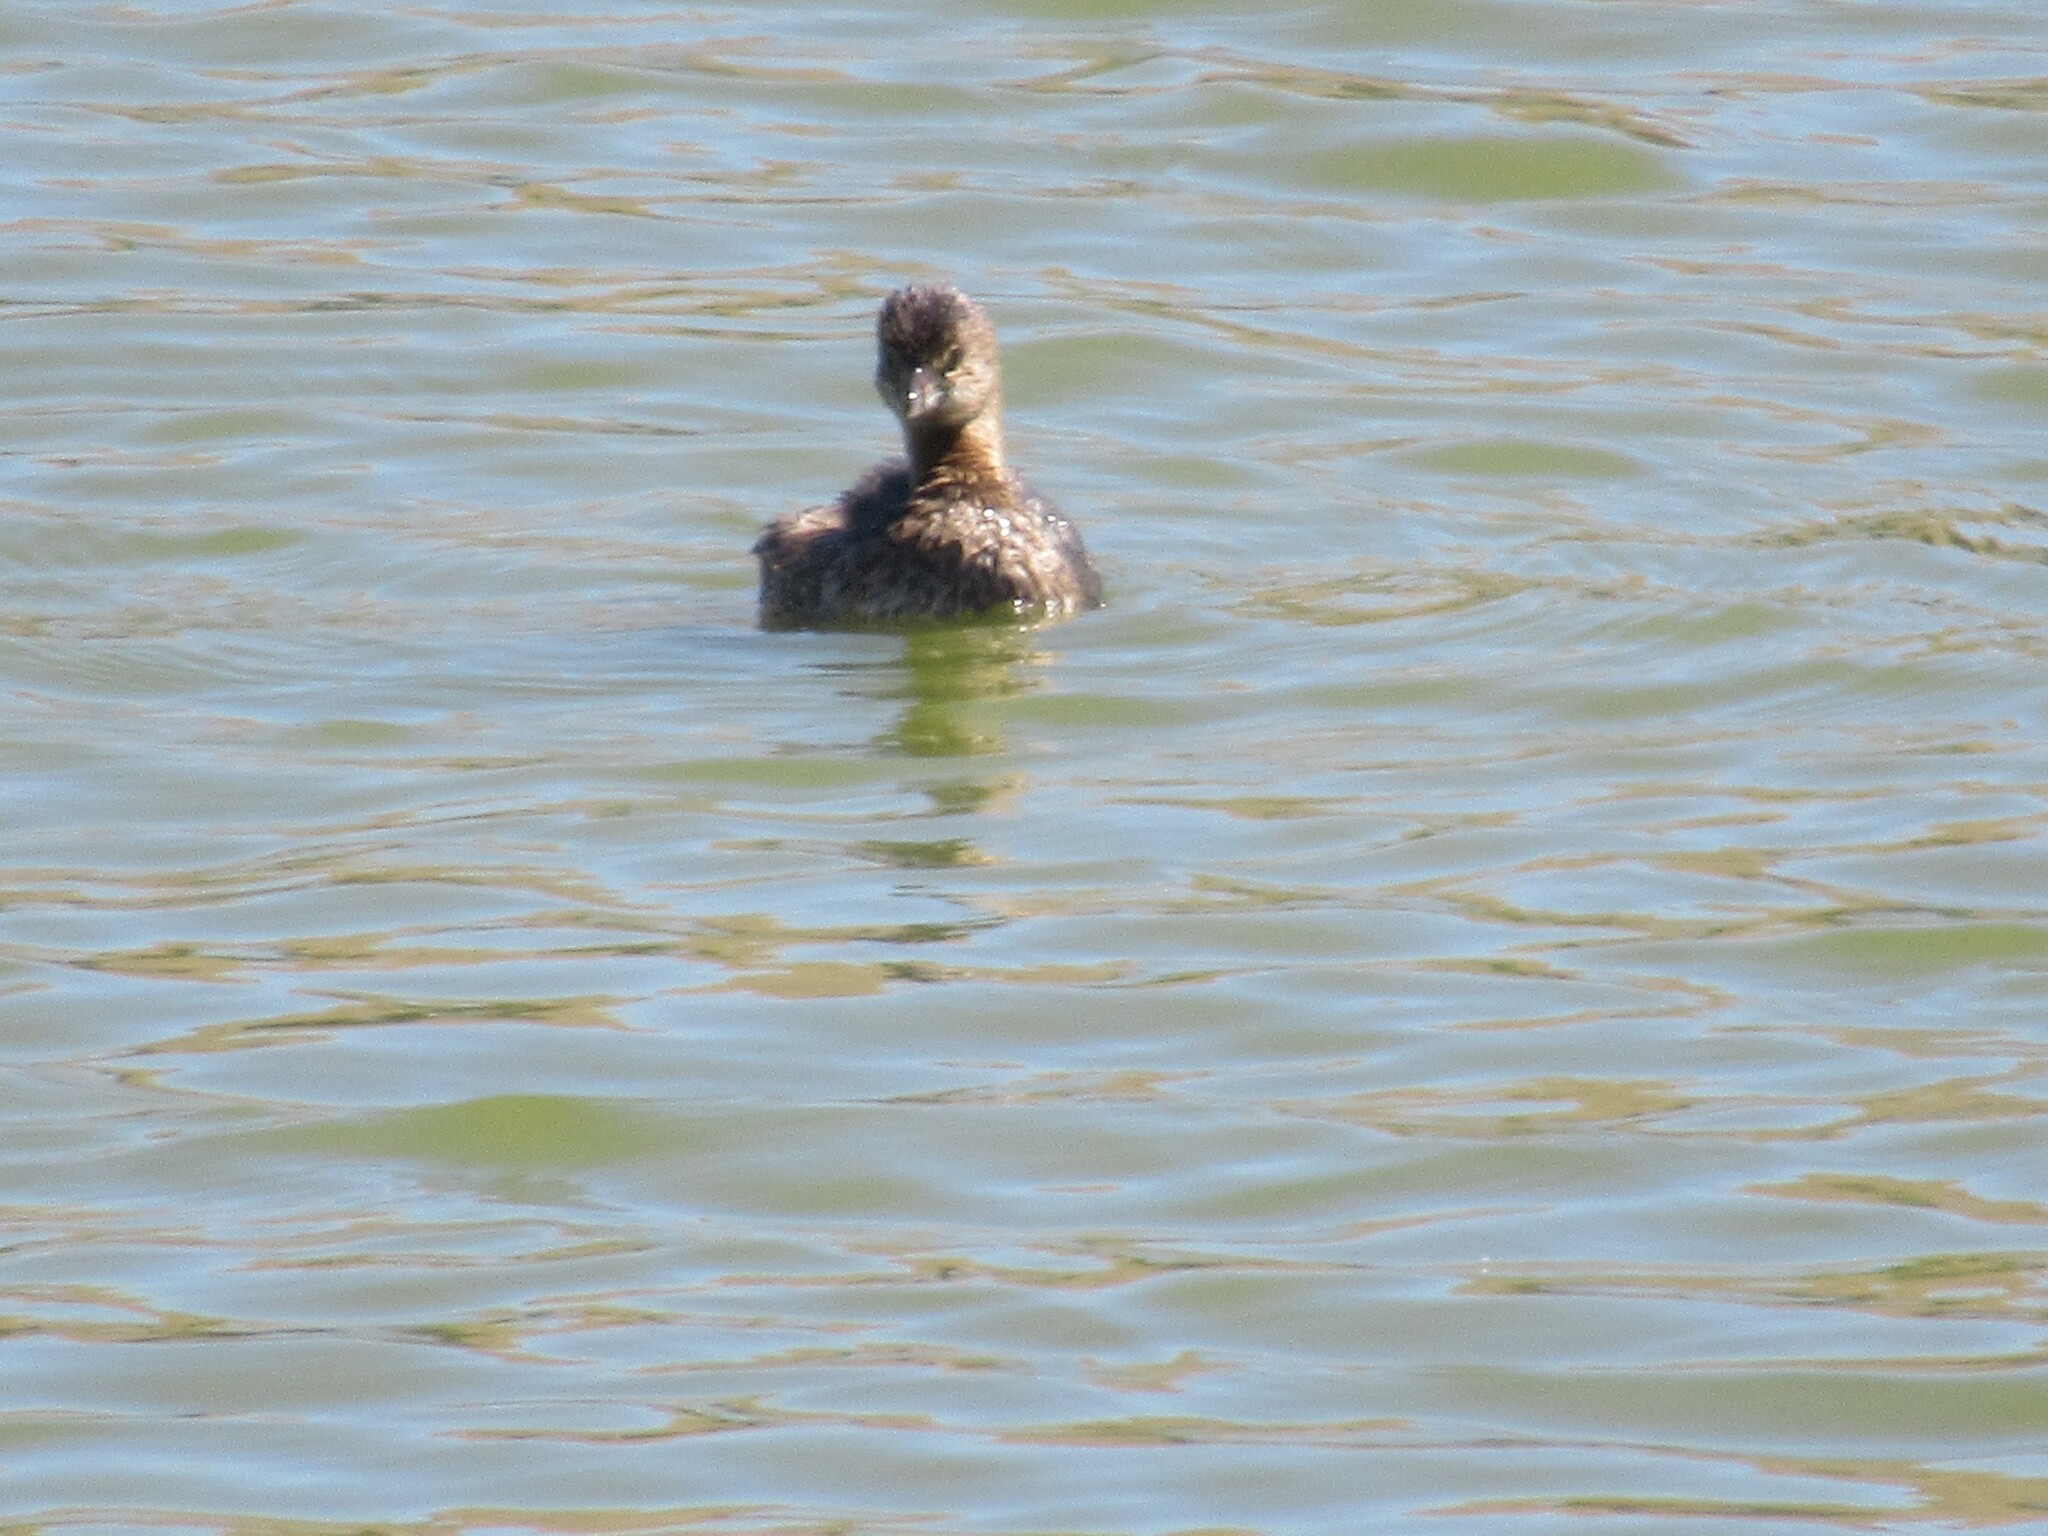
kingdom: Animalia
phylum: Chordata
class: Aves
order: Podicipediformes
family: Podicipedidae
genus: Podilymbus
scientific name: Podilymbus podiceps
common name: Pied-billed grebe
